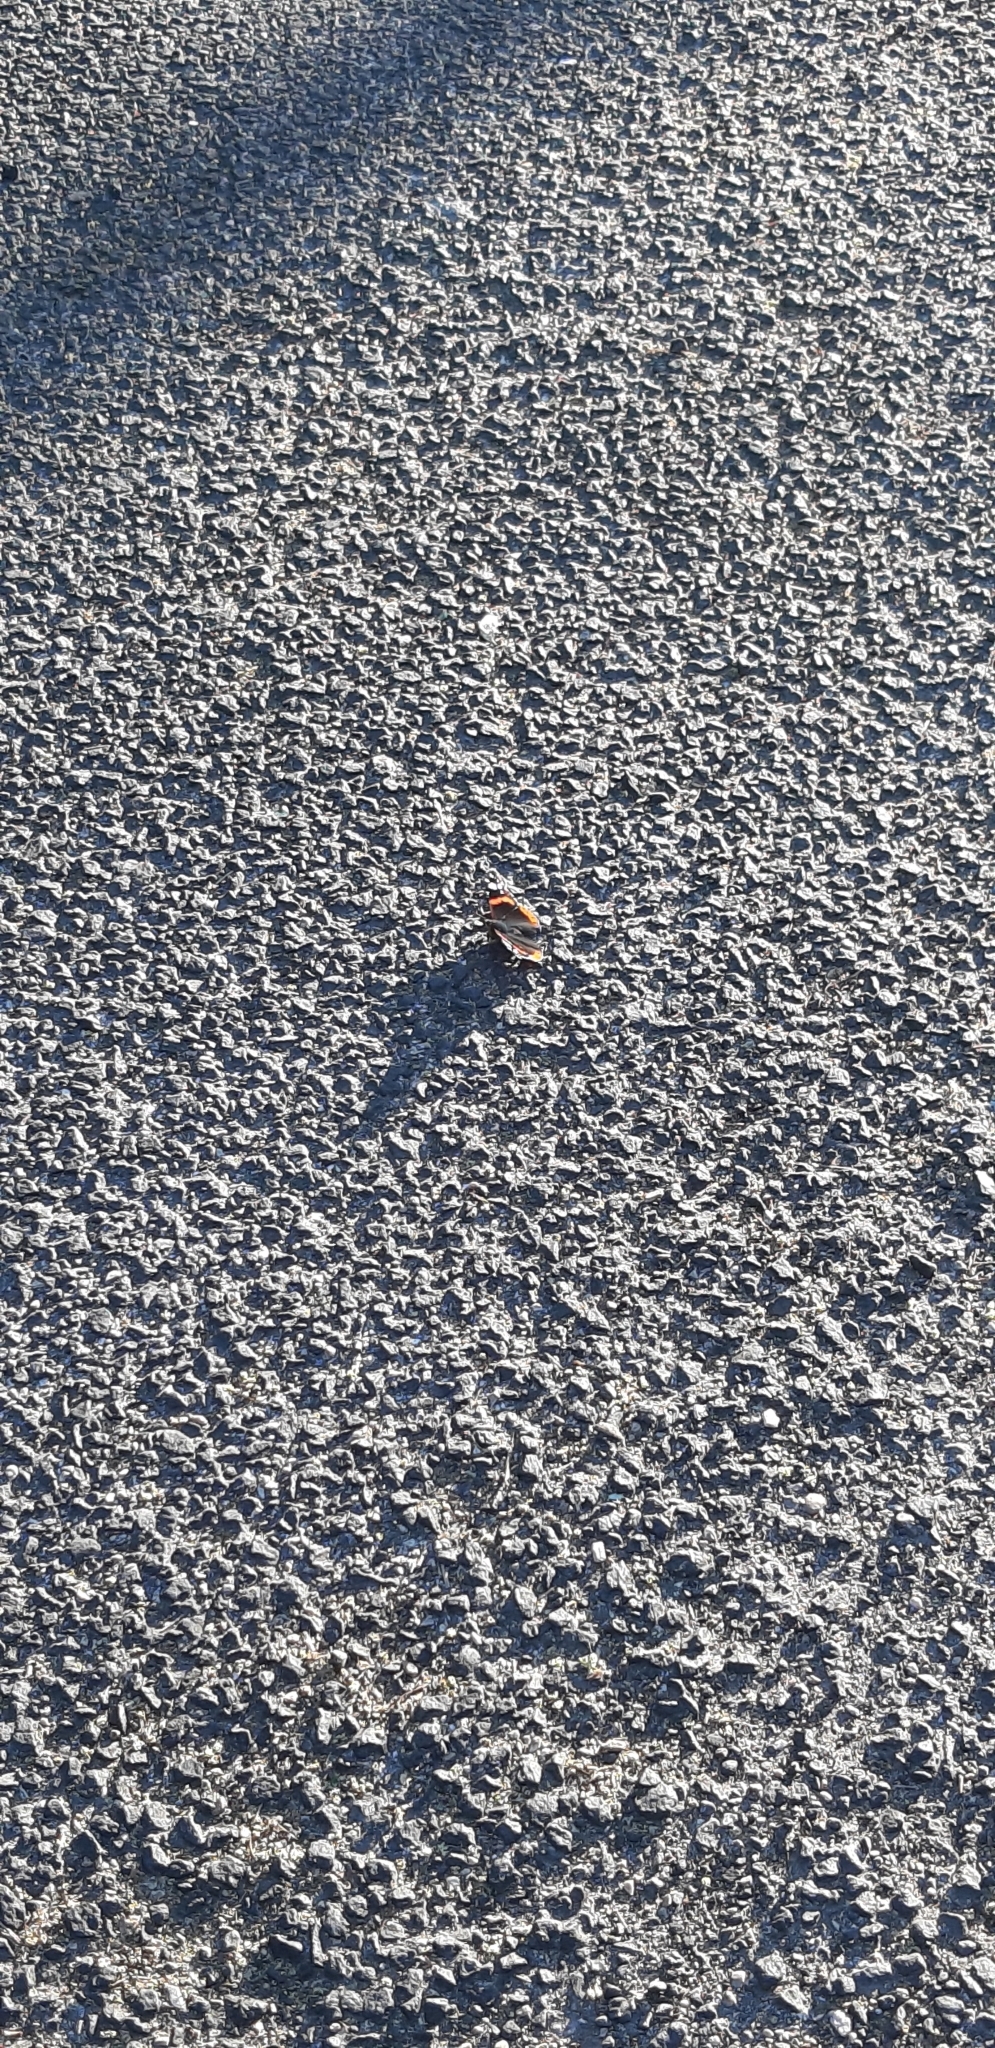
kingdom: Animalia
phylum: Arthropoda
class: Insecta
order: Lepidoptera
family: Nymphalidae
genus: Vanessa
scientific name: Vanessa atalanta
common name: Red admiral
